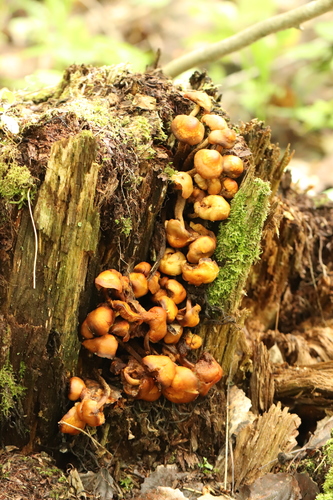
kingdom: Fungi
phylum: Basidiomycota
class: Agaricomycetes
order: Agaricales
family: Strophariaceae
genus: Kuehneromyces
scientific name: Kuehneromyces mutabilis
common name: Sheathed woodtuft
